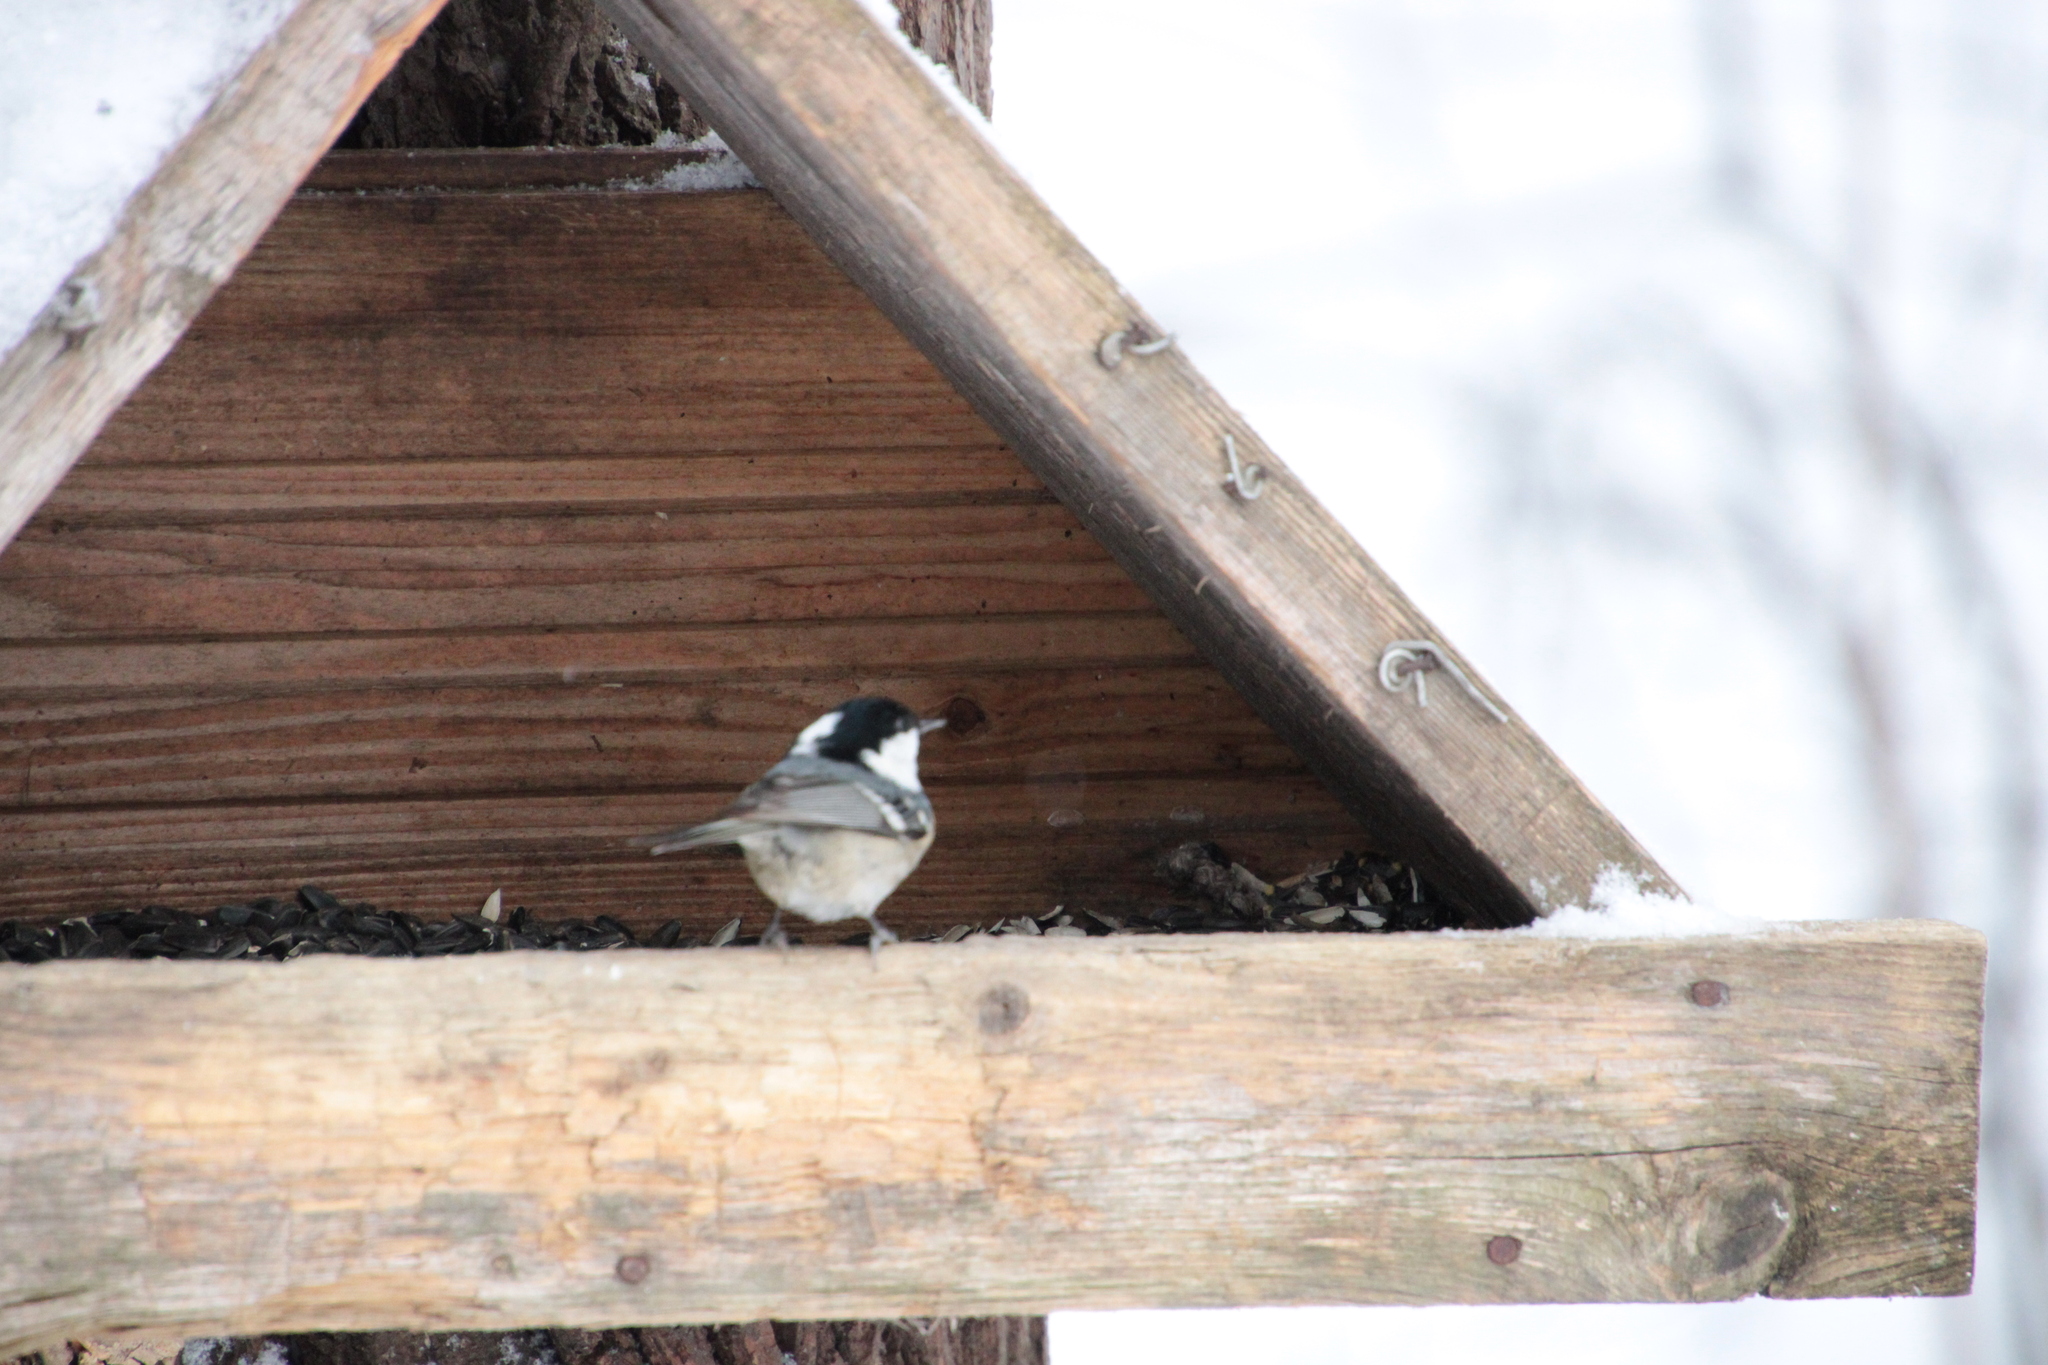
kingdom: Animalia
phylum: Chordata
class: Aves
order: Passeriformes
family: Paridae
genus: Periparus
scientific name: Periparus ater
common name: Coal tit
